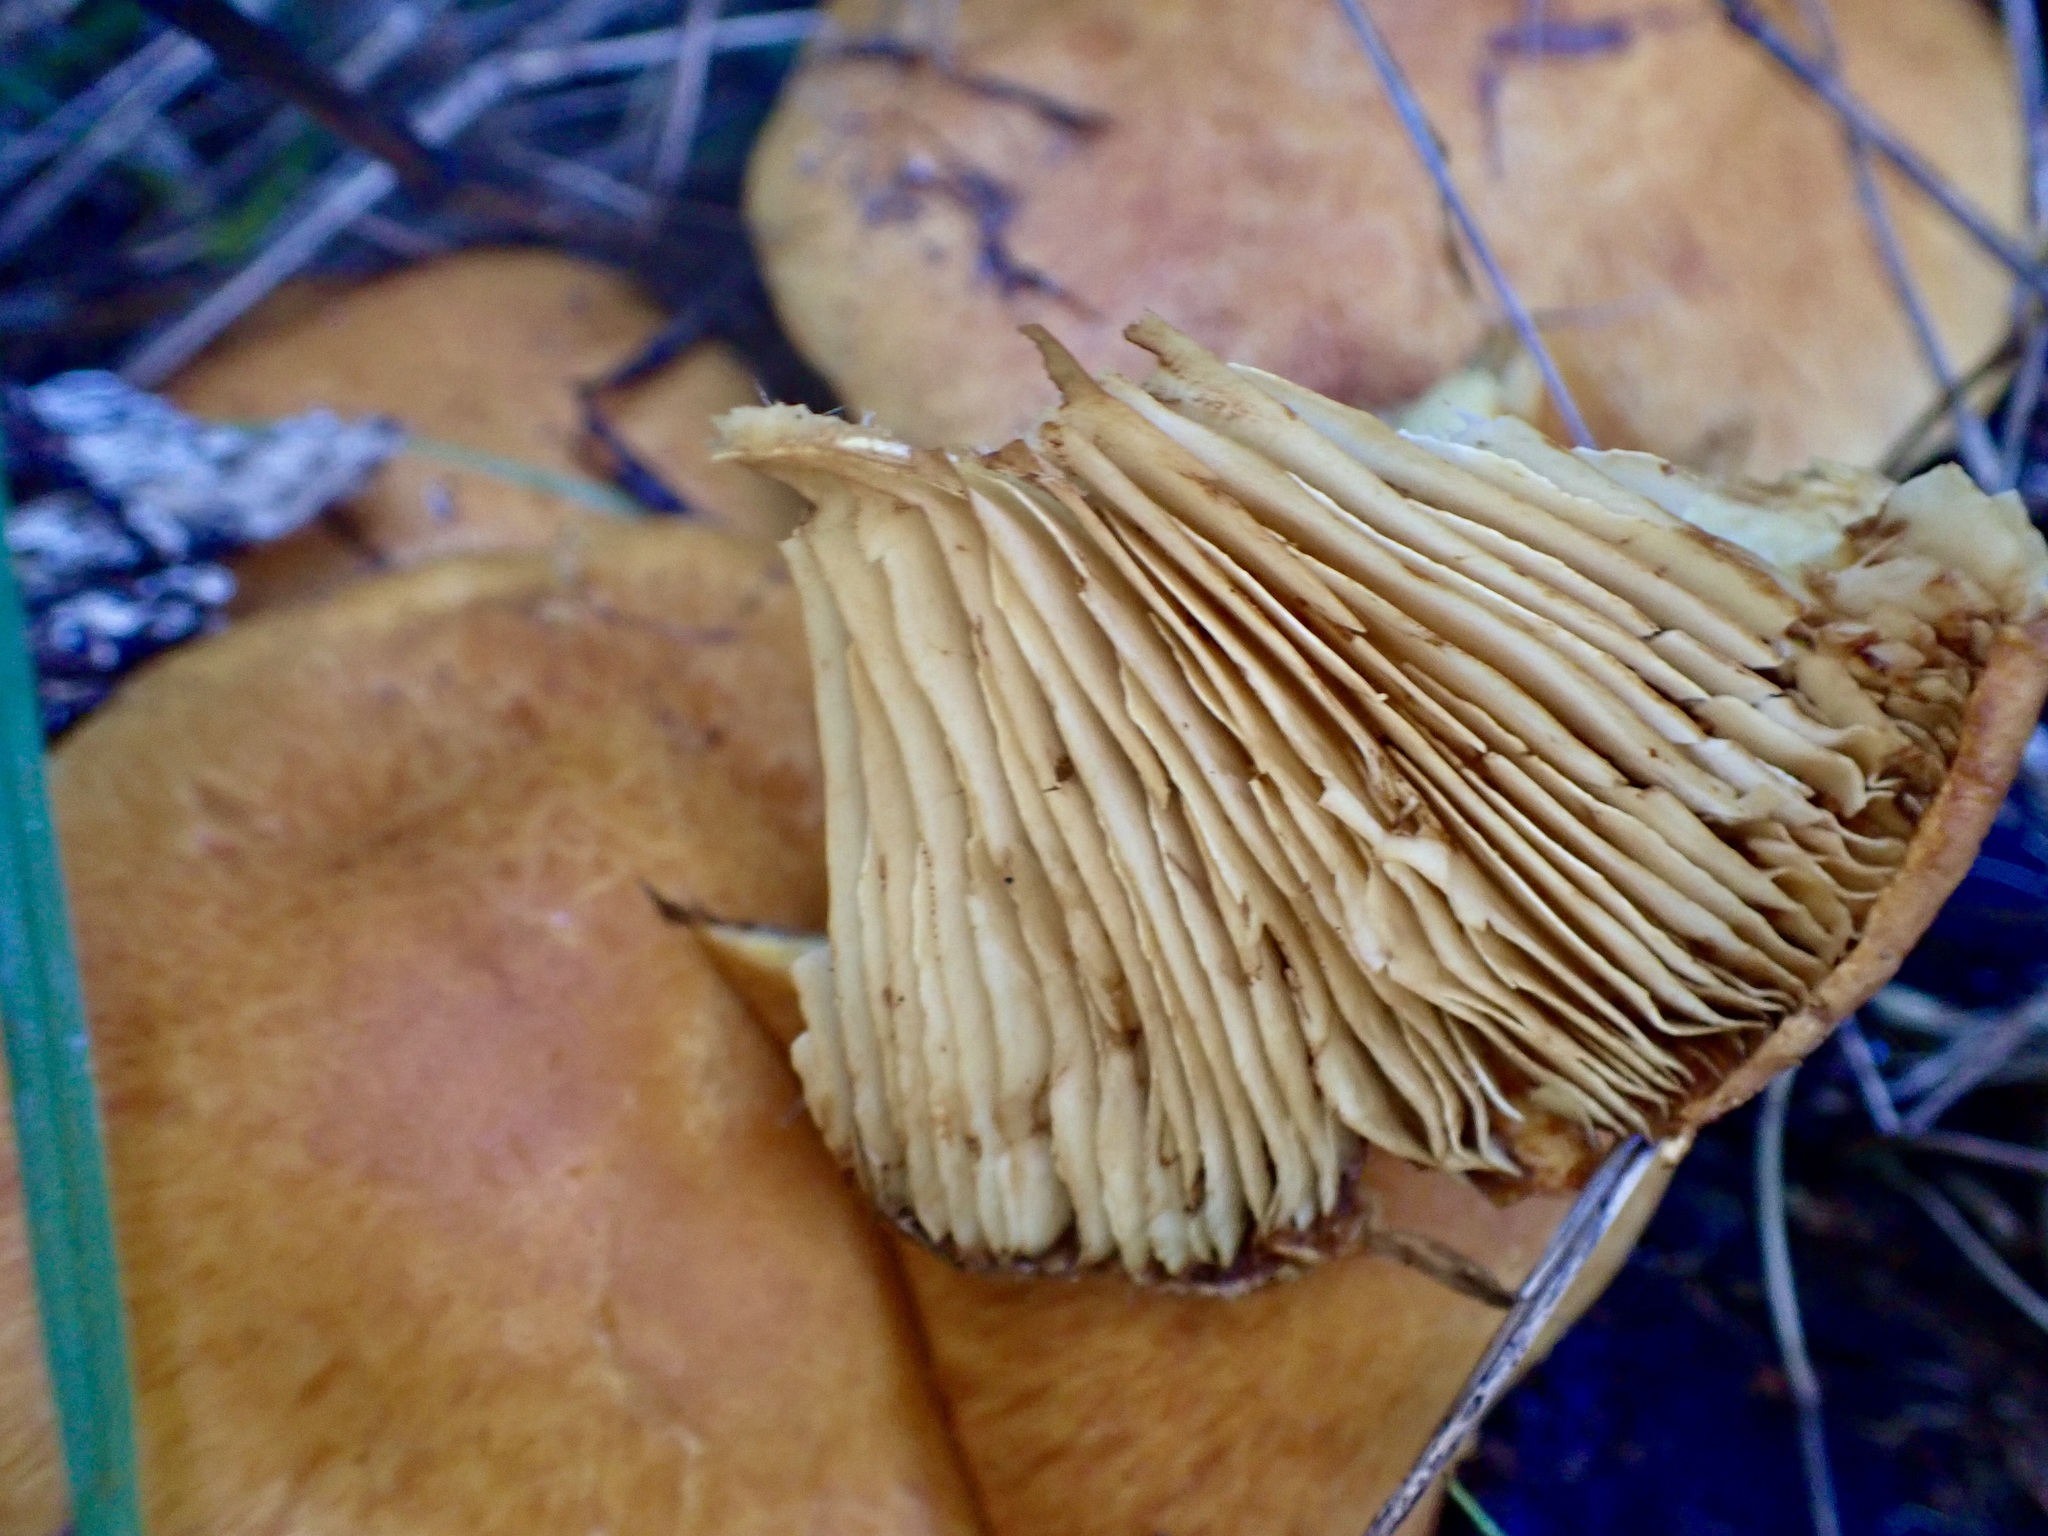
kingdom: Fungi
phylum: Basidiomycota
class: Agaricomycetes
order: Agaricales
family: Hymenogastraceae
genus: Gymnopilus
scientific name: Gymnopilus junonius
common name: Spectacular rustgill
